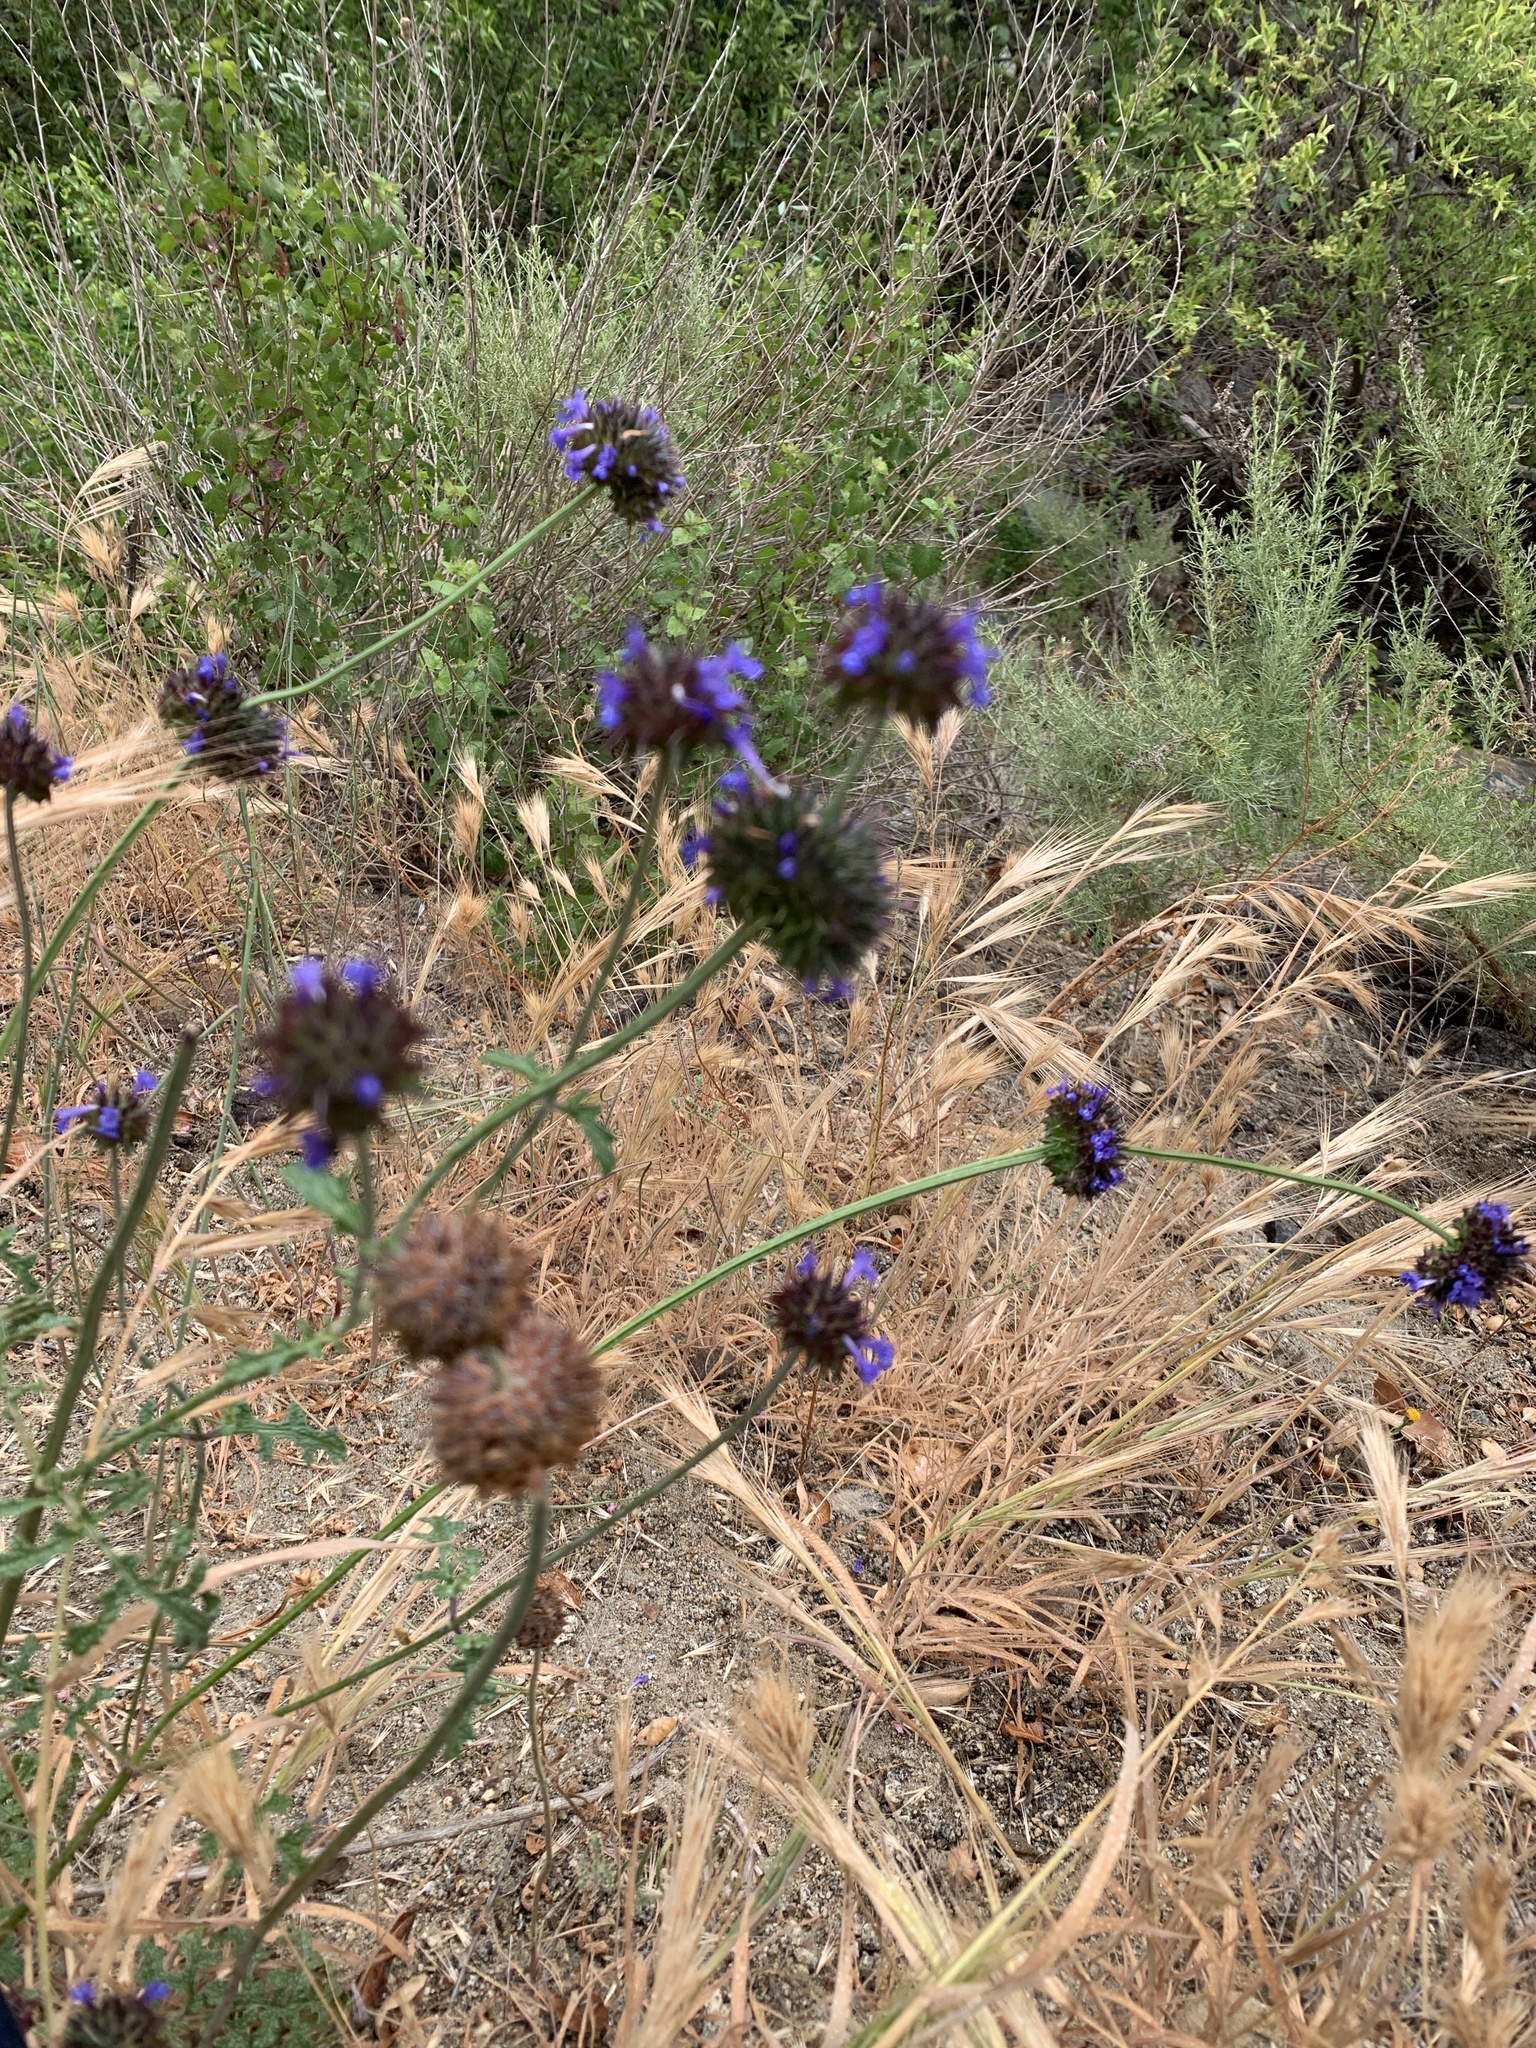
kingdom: Plantae
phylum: Tracheophyta
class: Magnoliopsida
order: Lamiales
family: Lamiaceae
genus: Salvia
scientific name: Salvia columbariae
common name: Chia
